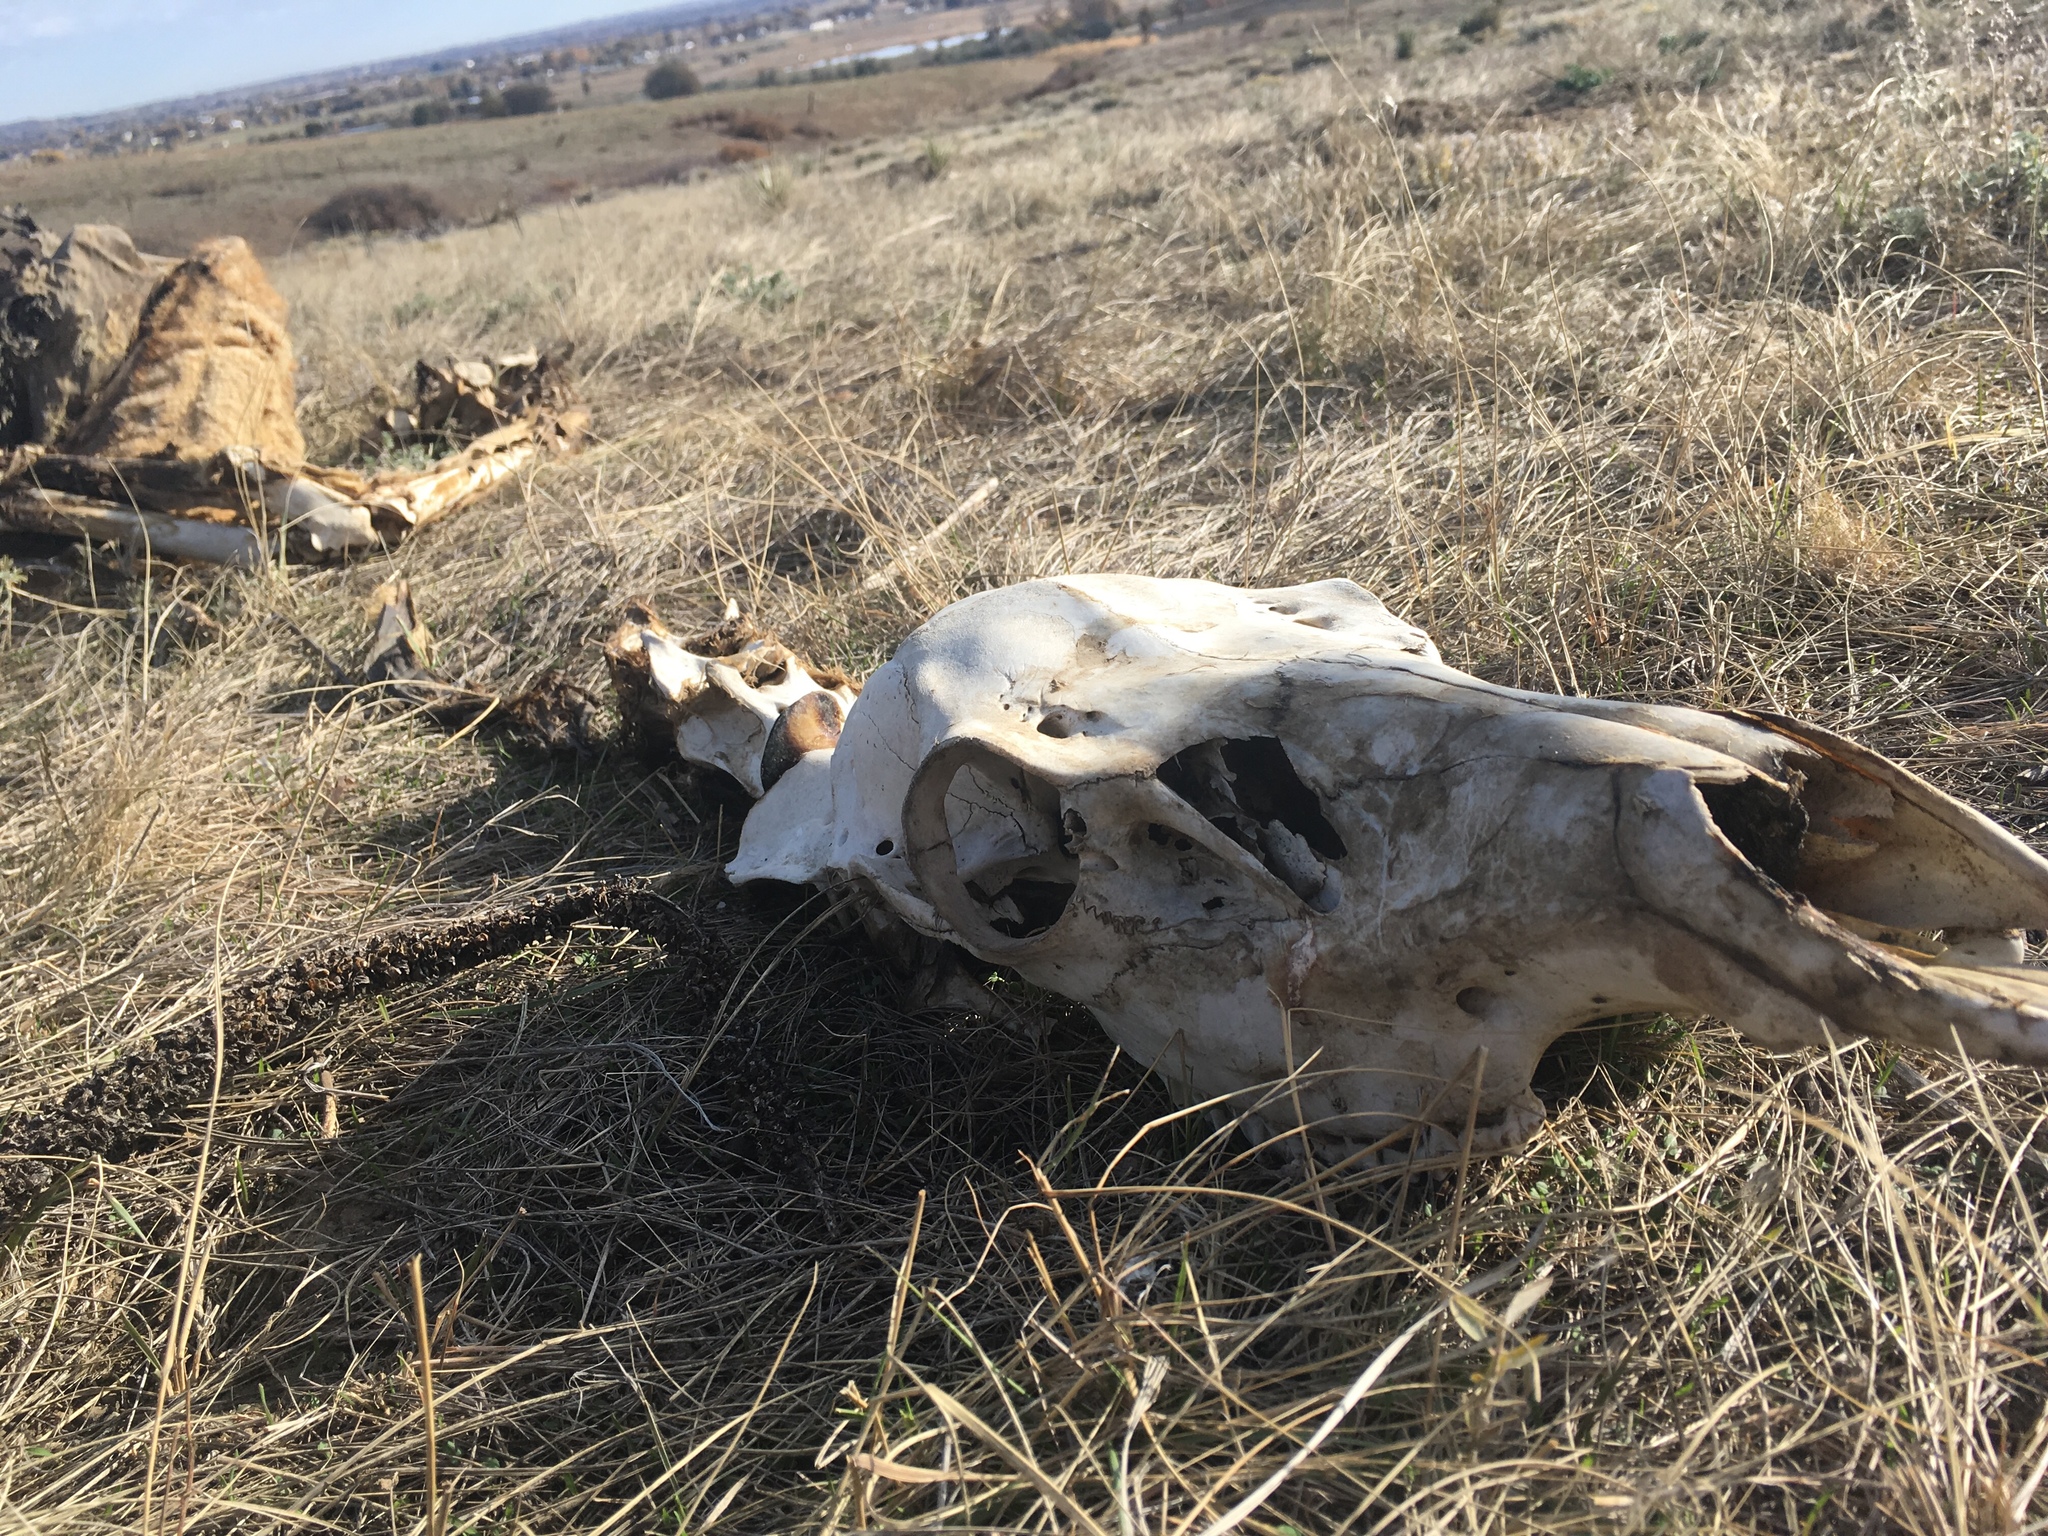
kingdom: Animalia
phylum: Chordata
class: Mammalia
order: Artiodactyla
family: Cervidae
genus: Cervus
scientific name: Cervus elaphus
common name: Red deer
